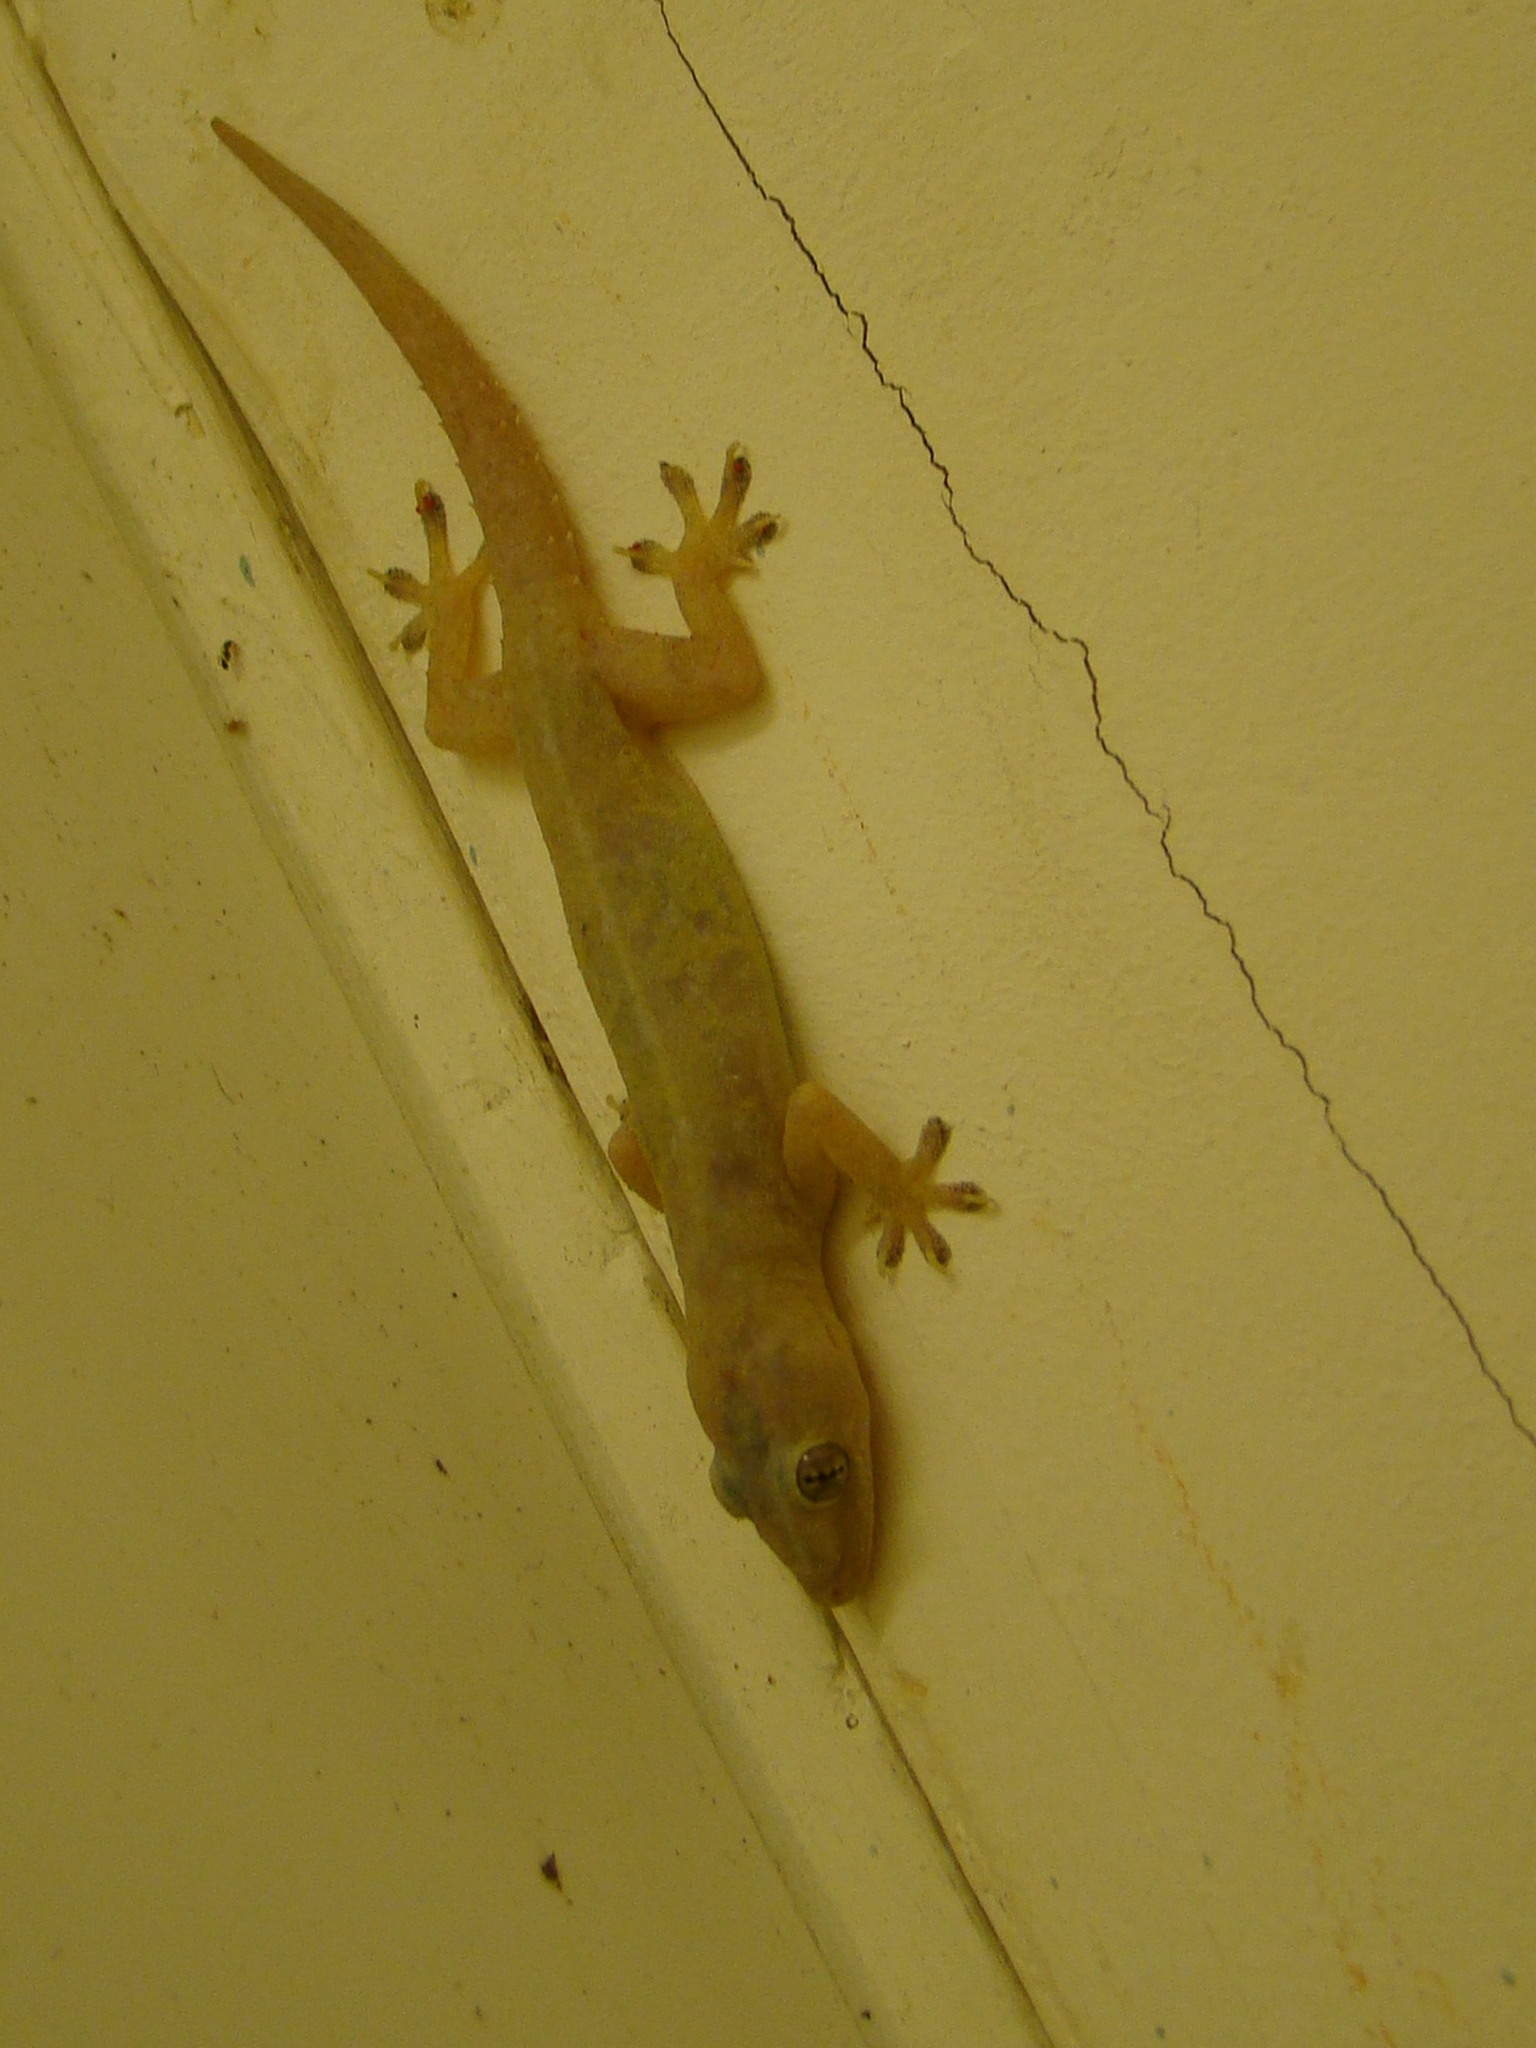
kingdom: Animalia
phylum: Chordata
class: Squamata
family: Gekkonidae
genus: Hemidactylus
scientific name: Hemidactylus frenatus
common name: Common house gecko
